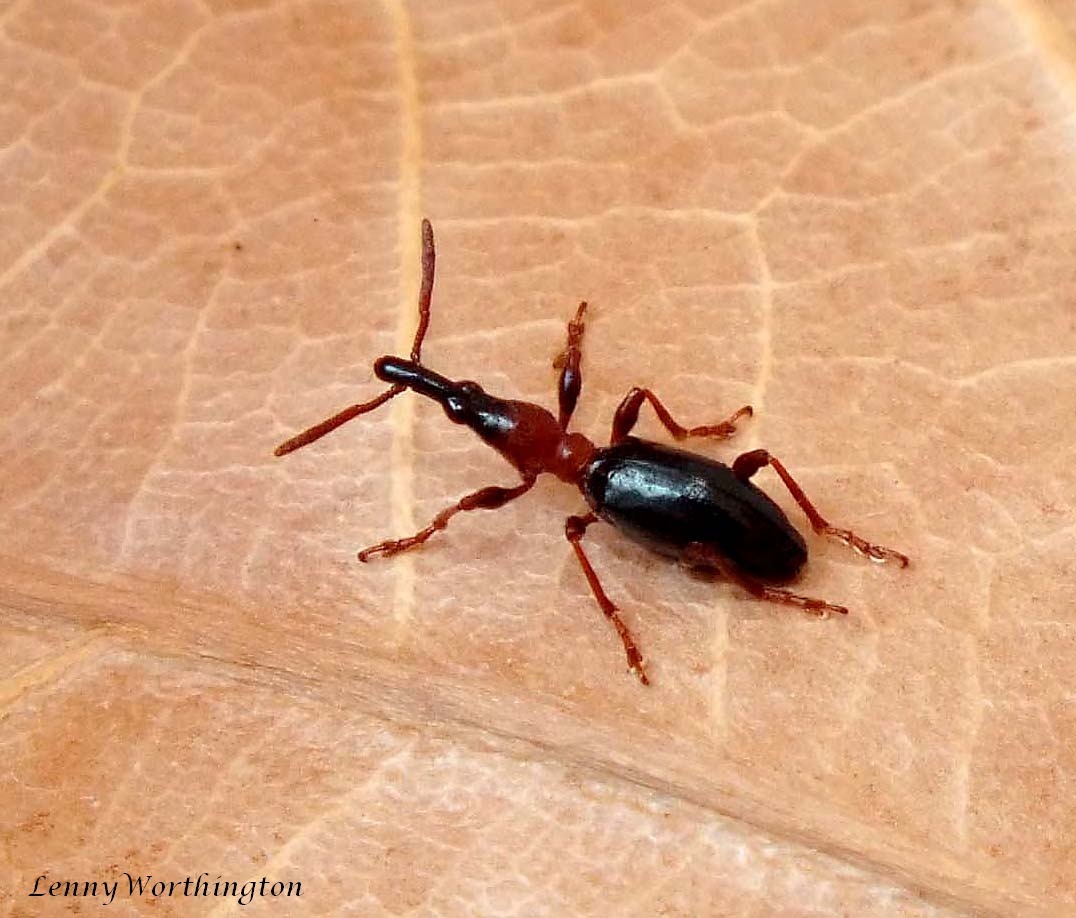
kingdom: Animalia
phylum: Arthropoda
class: Insecta
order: Coleoptera
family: Brentidae
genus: Cylas
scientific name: Cylas formicarius
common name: Sweetpotato weevil
